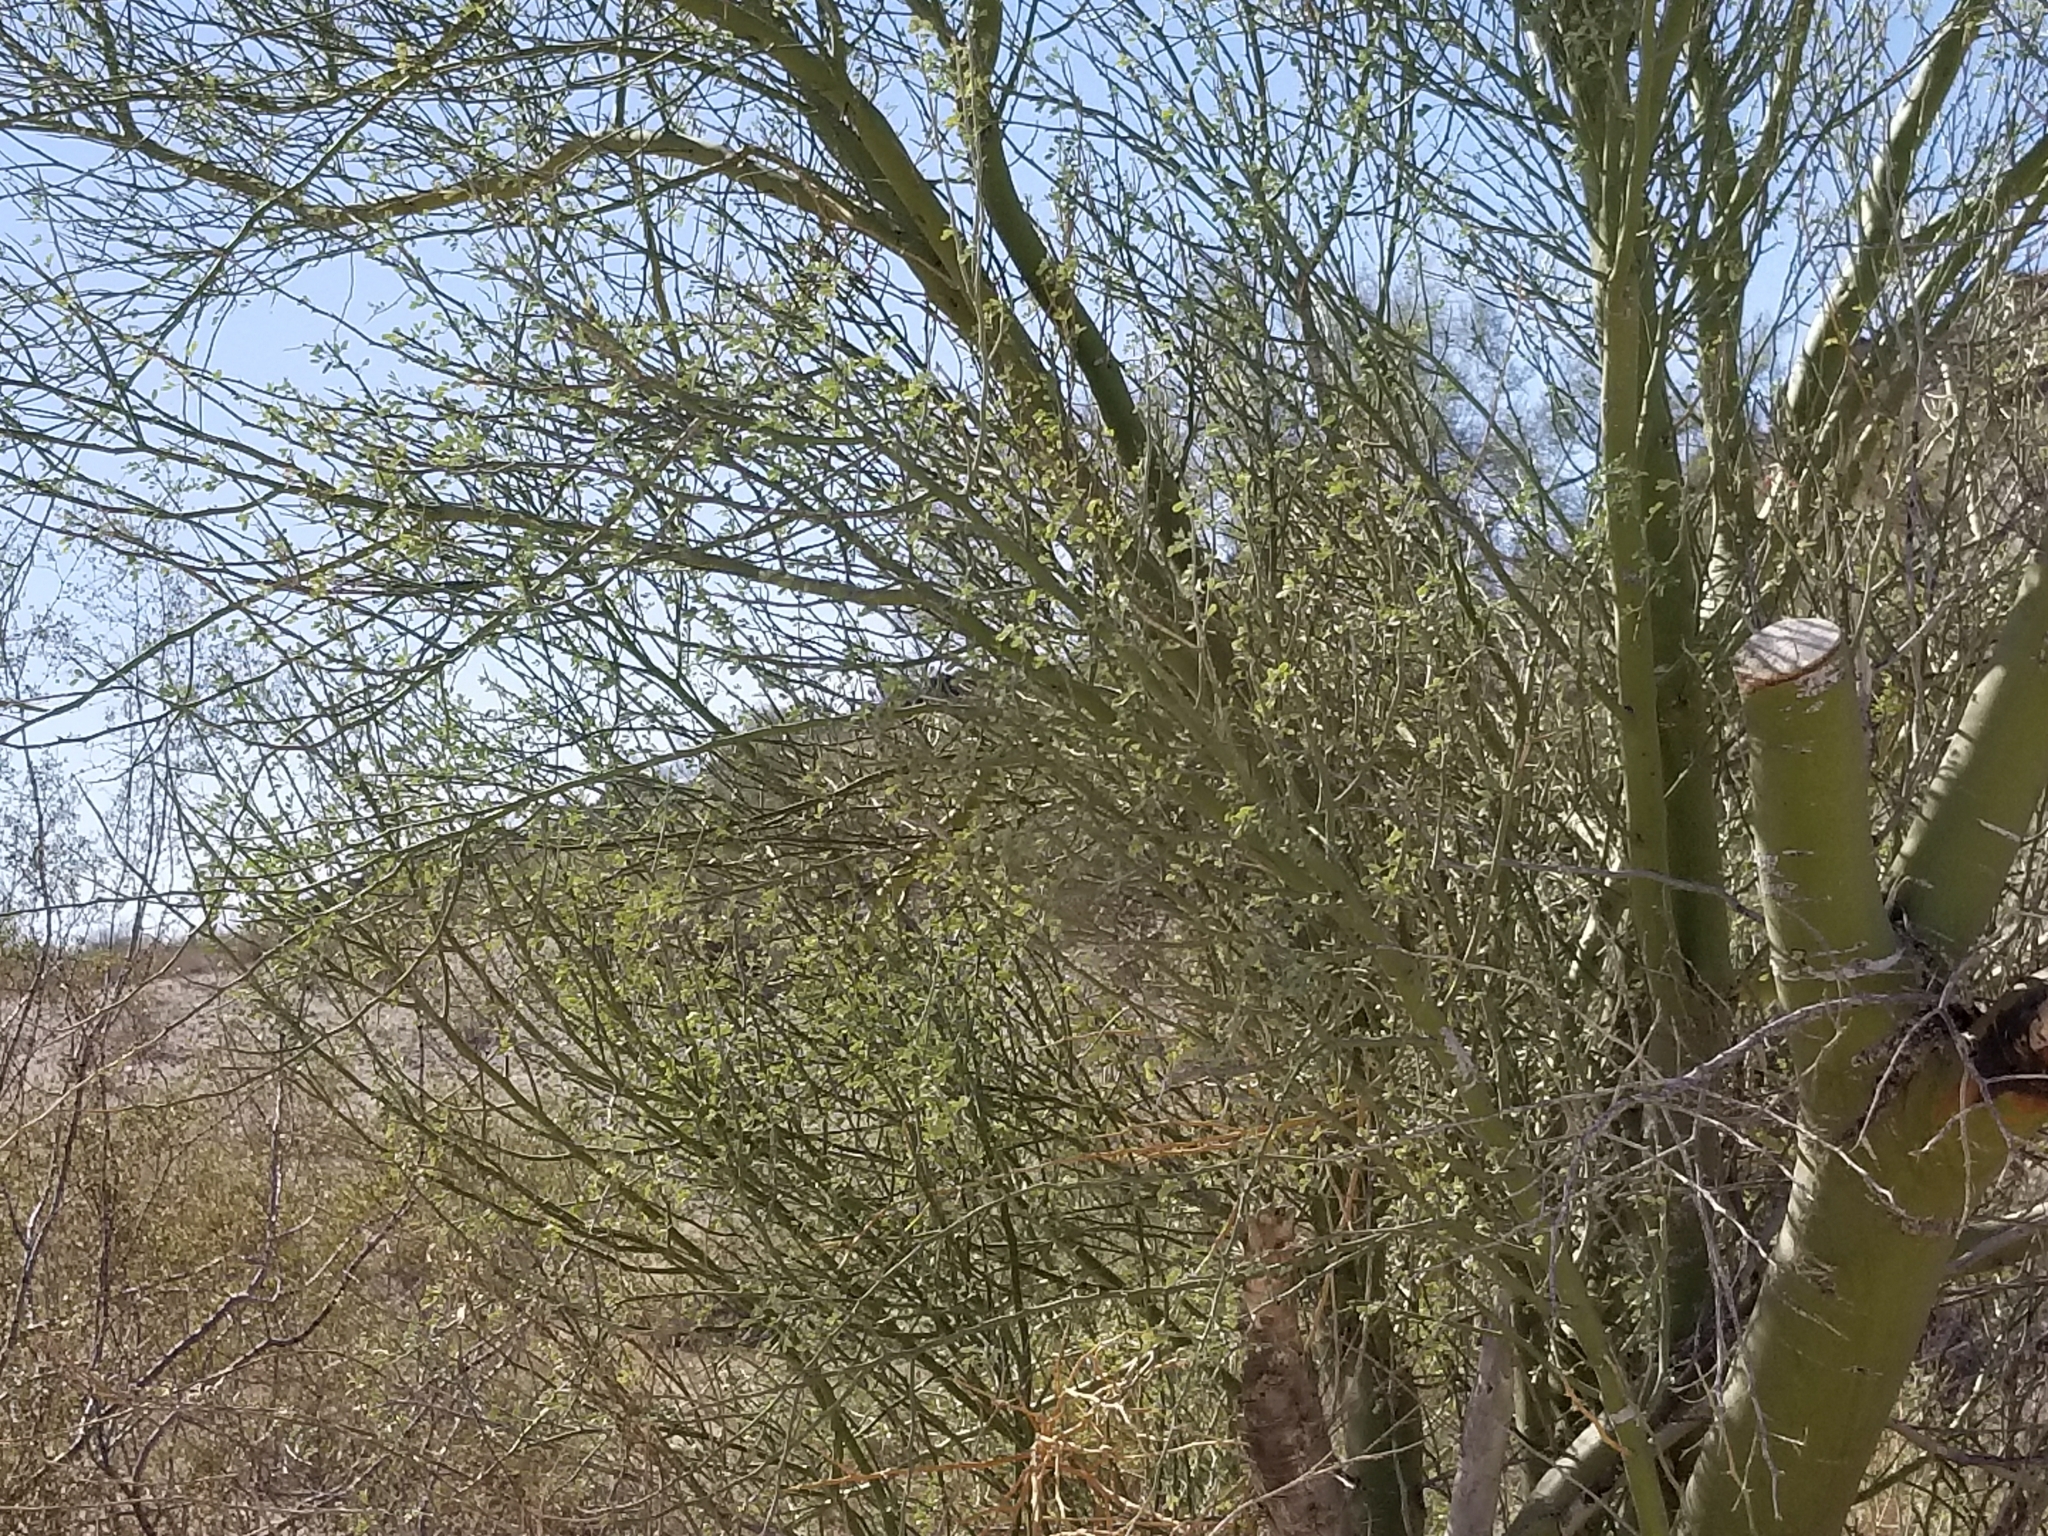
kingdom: Plantae
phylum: Tracheophyta
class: Magnoliopsida
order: Fabales
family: Fabaceae
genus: Parkinsonia
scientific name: Parkinsonia florida
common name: Blue paloverde
